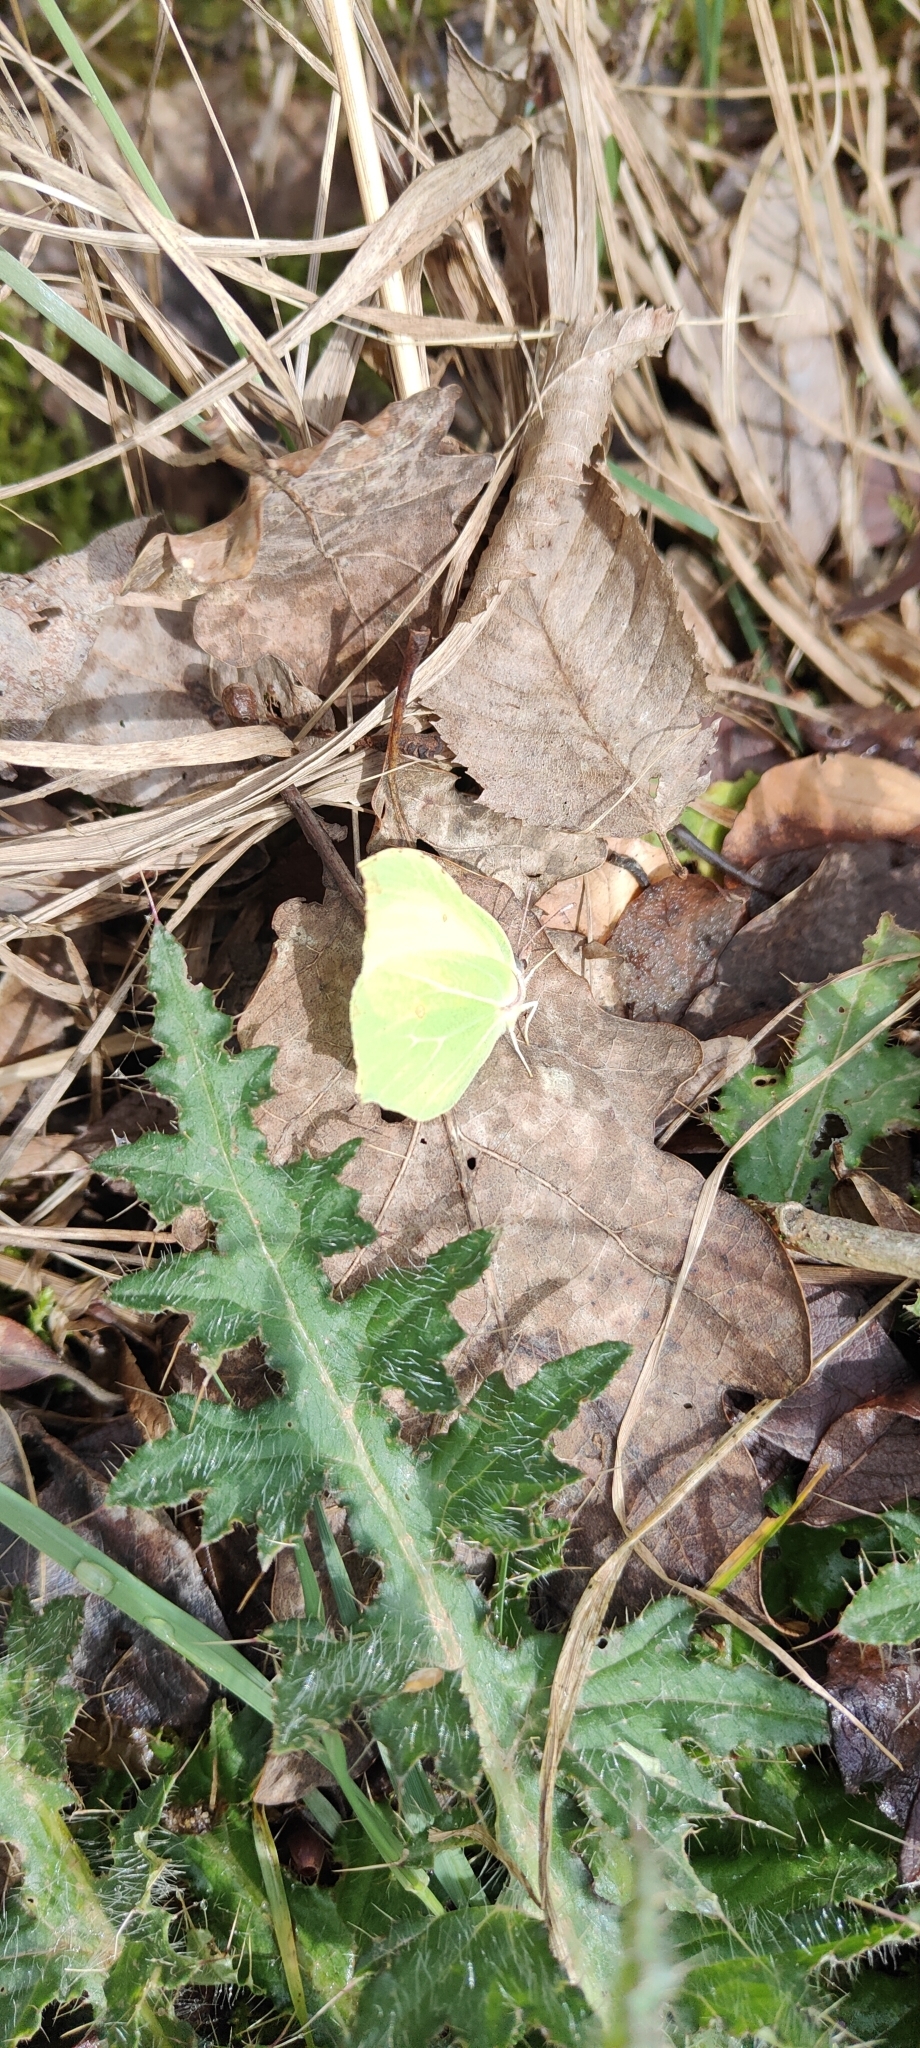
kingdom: Animalia
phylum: Arthropoda
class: Insecta
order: Lepidoptera
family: Pieridae
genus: Gonepteryx
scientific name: Gonepteryx rhamni
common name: Brimstone
